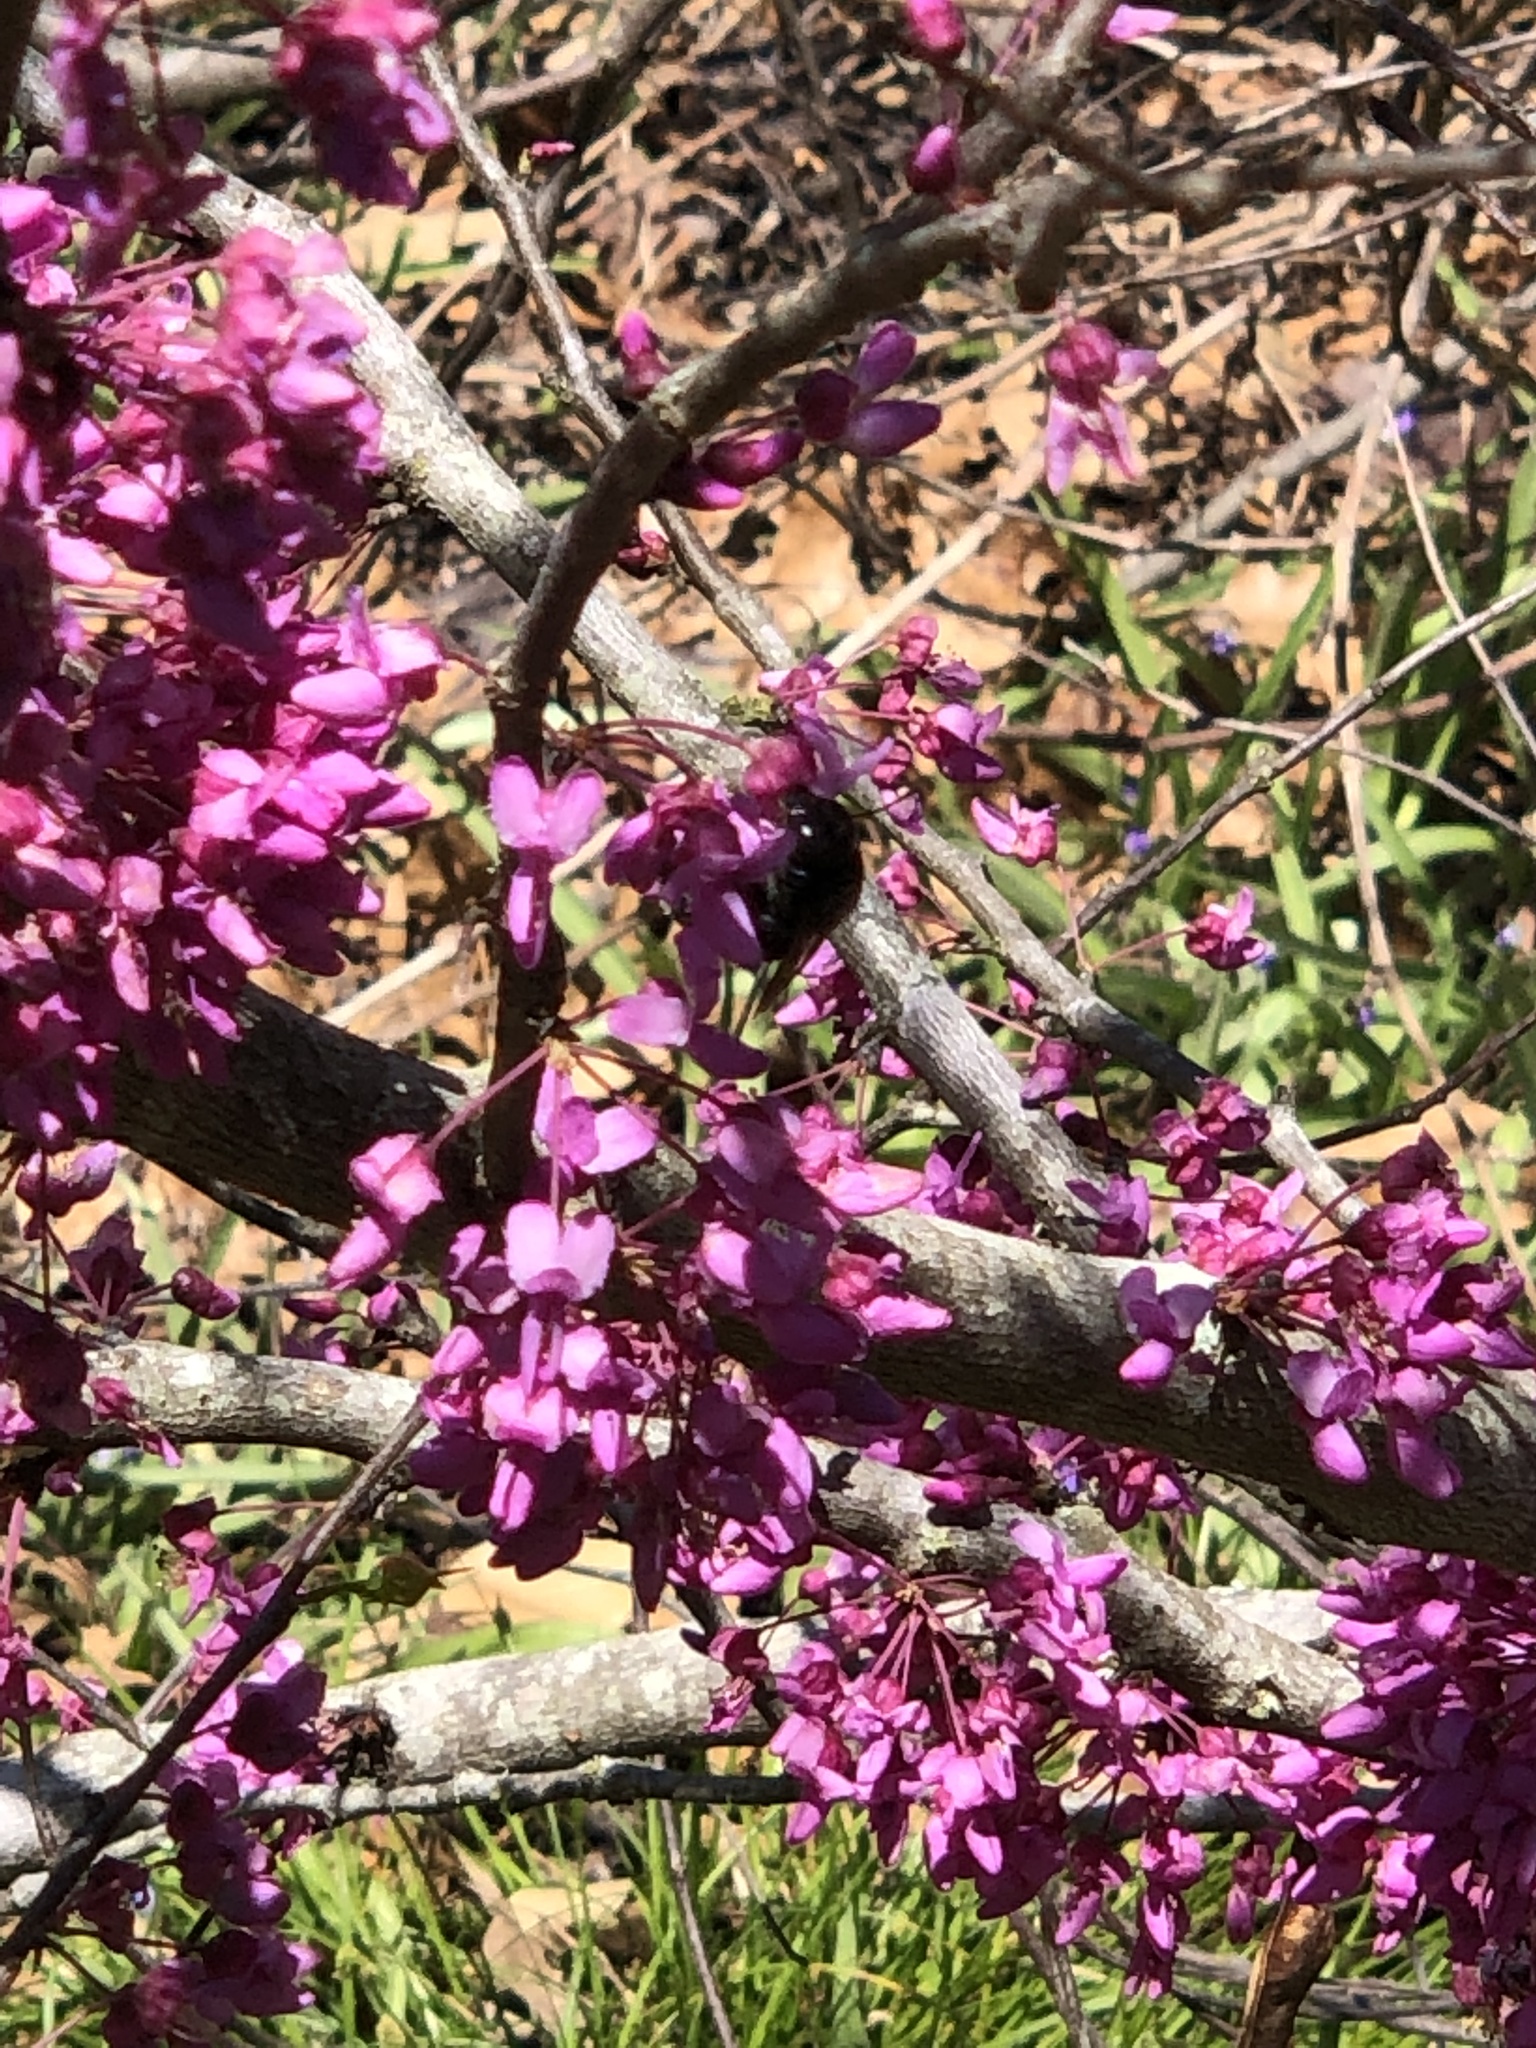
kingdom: Animalia
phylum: Arthropoda
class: Insecta
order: Hymenoptera
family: Apidae
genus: Xylocopa
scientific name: Xylocopa micans
